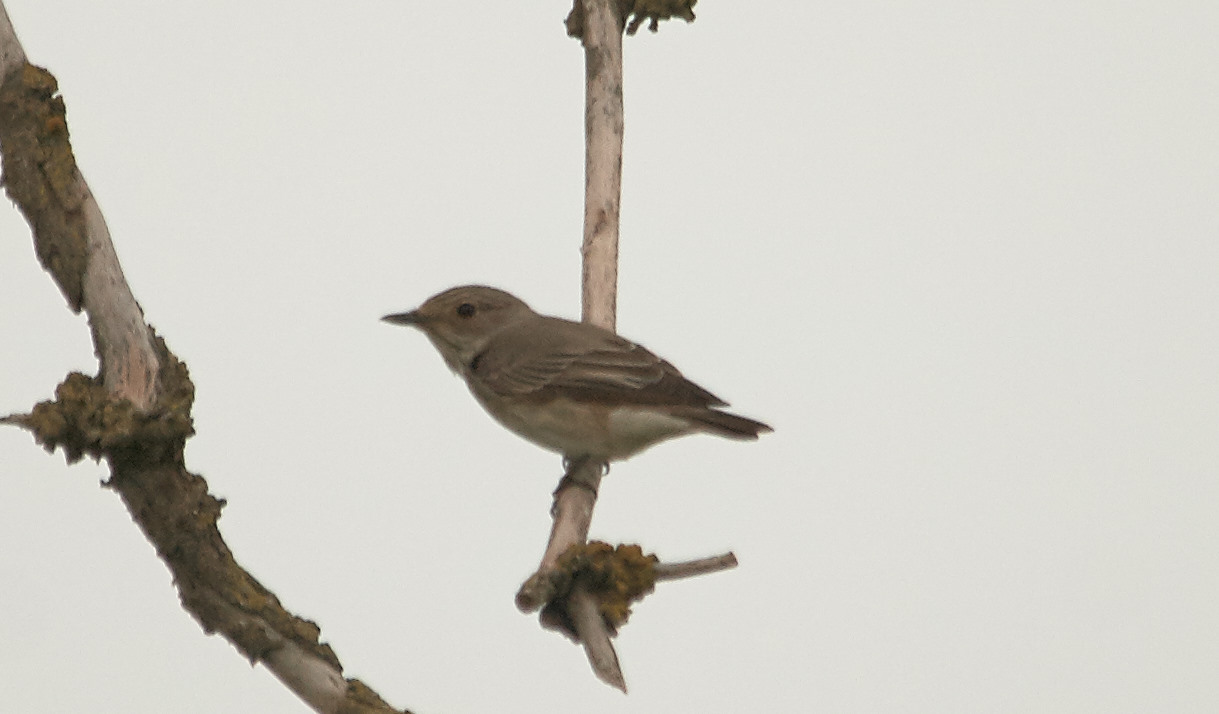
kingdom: Animalia
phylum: Chordata
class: Aves
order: Passeriformes
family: Muscicapidae
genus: Muscicapa
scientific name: Muscicapa striata
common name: Spotted flycatcher
